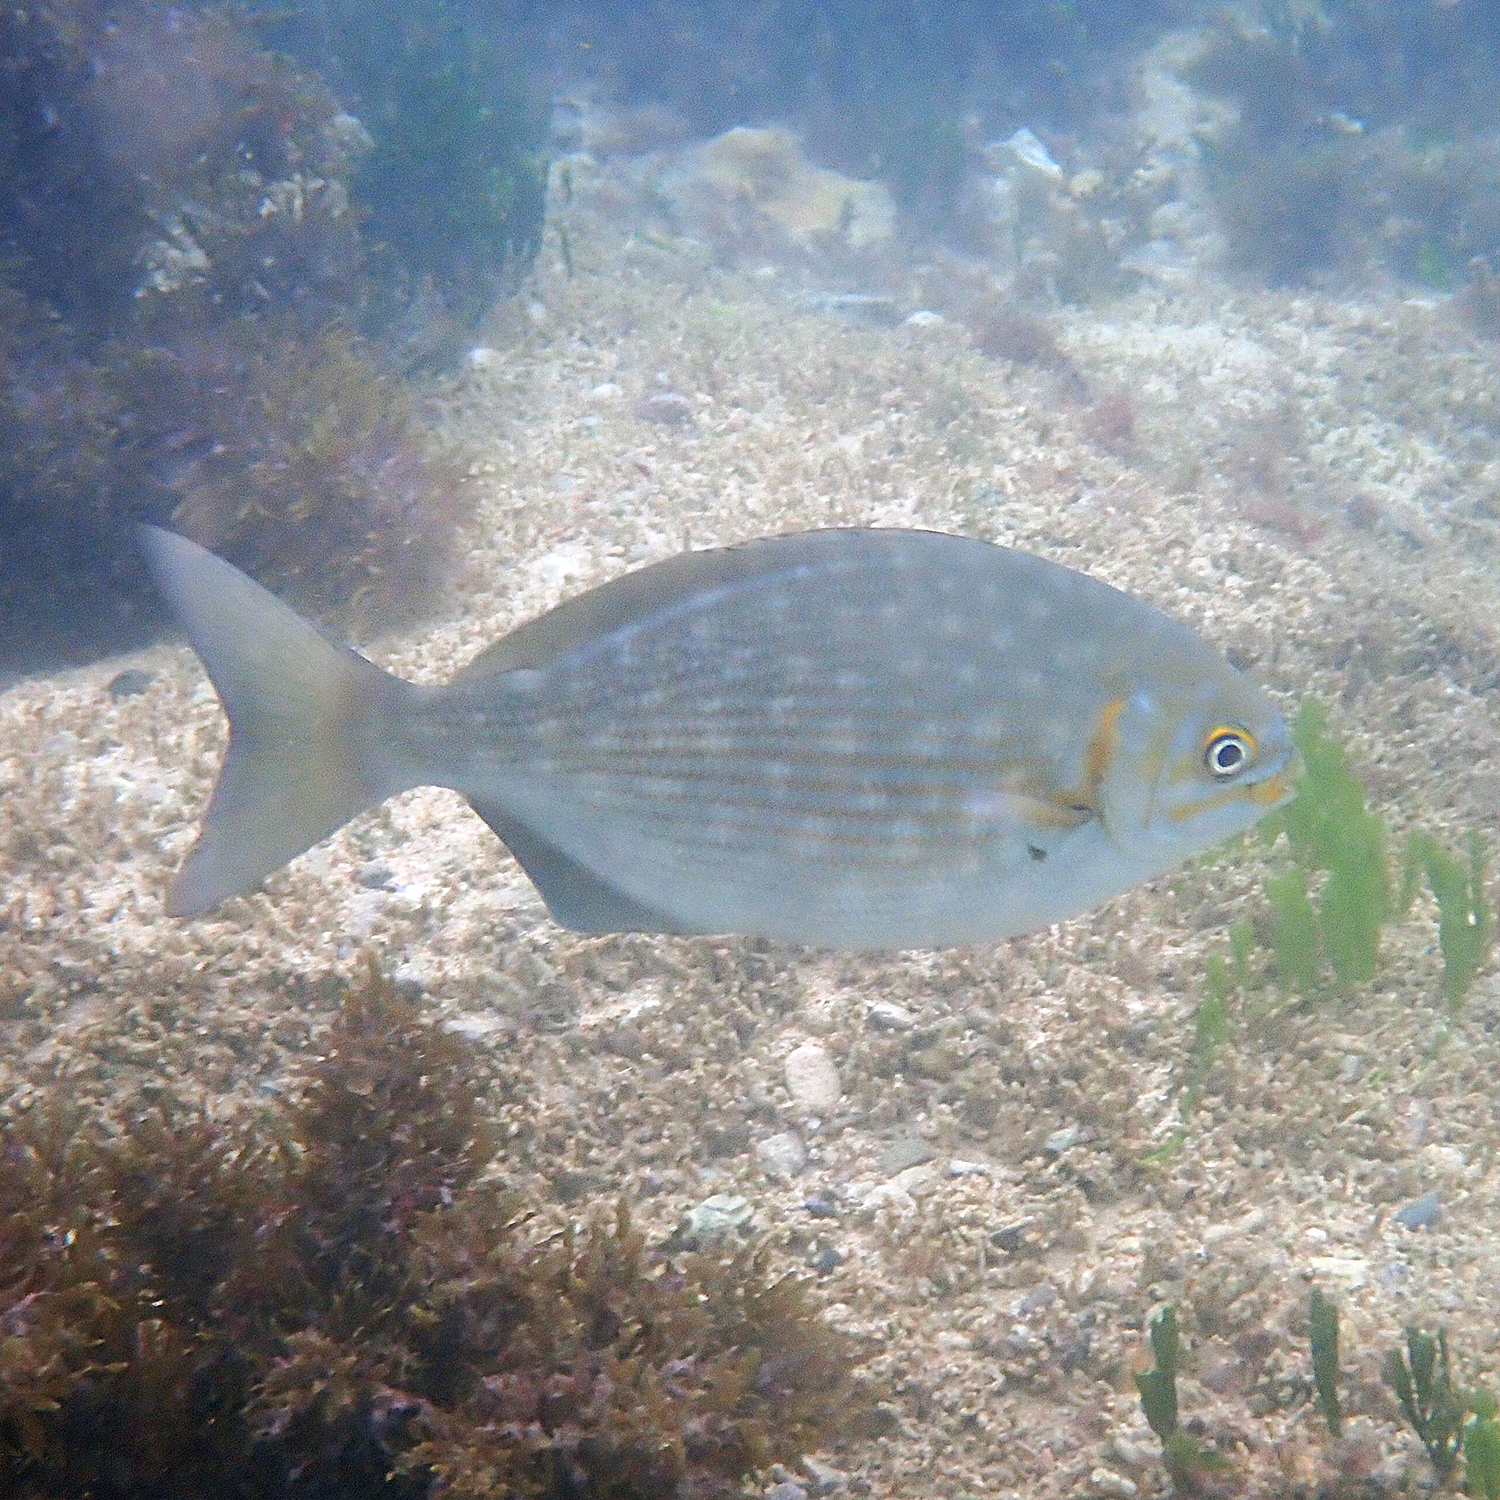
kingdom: Animalia
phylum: Chordata
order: Perciformes
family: Kyphosidae
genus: Kyphosus
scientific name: Kyphosus vaigiensis
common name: Brassy chub
